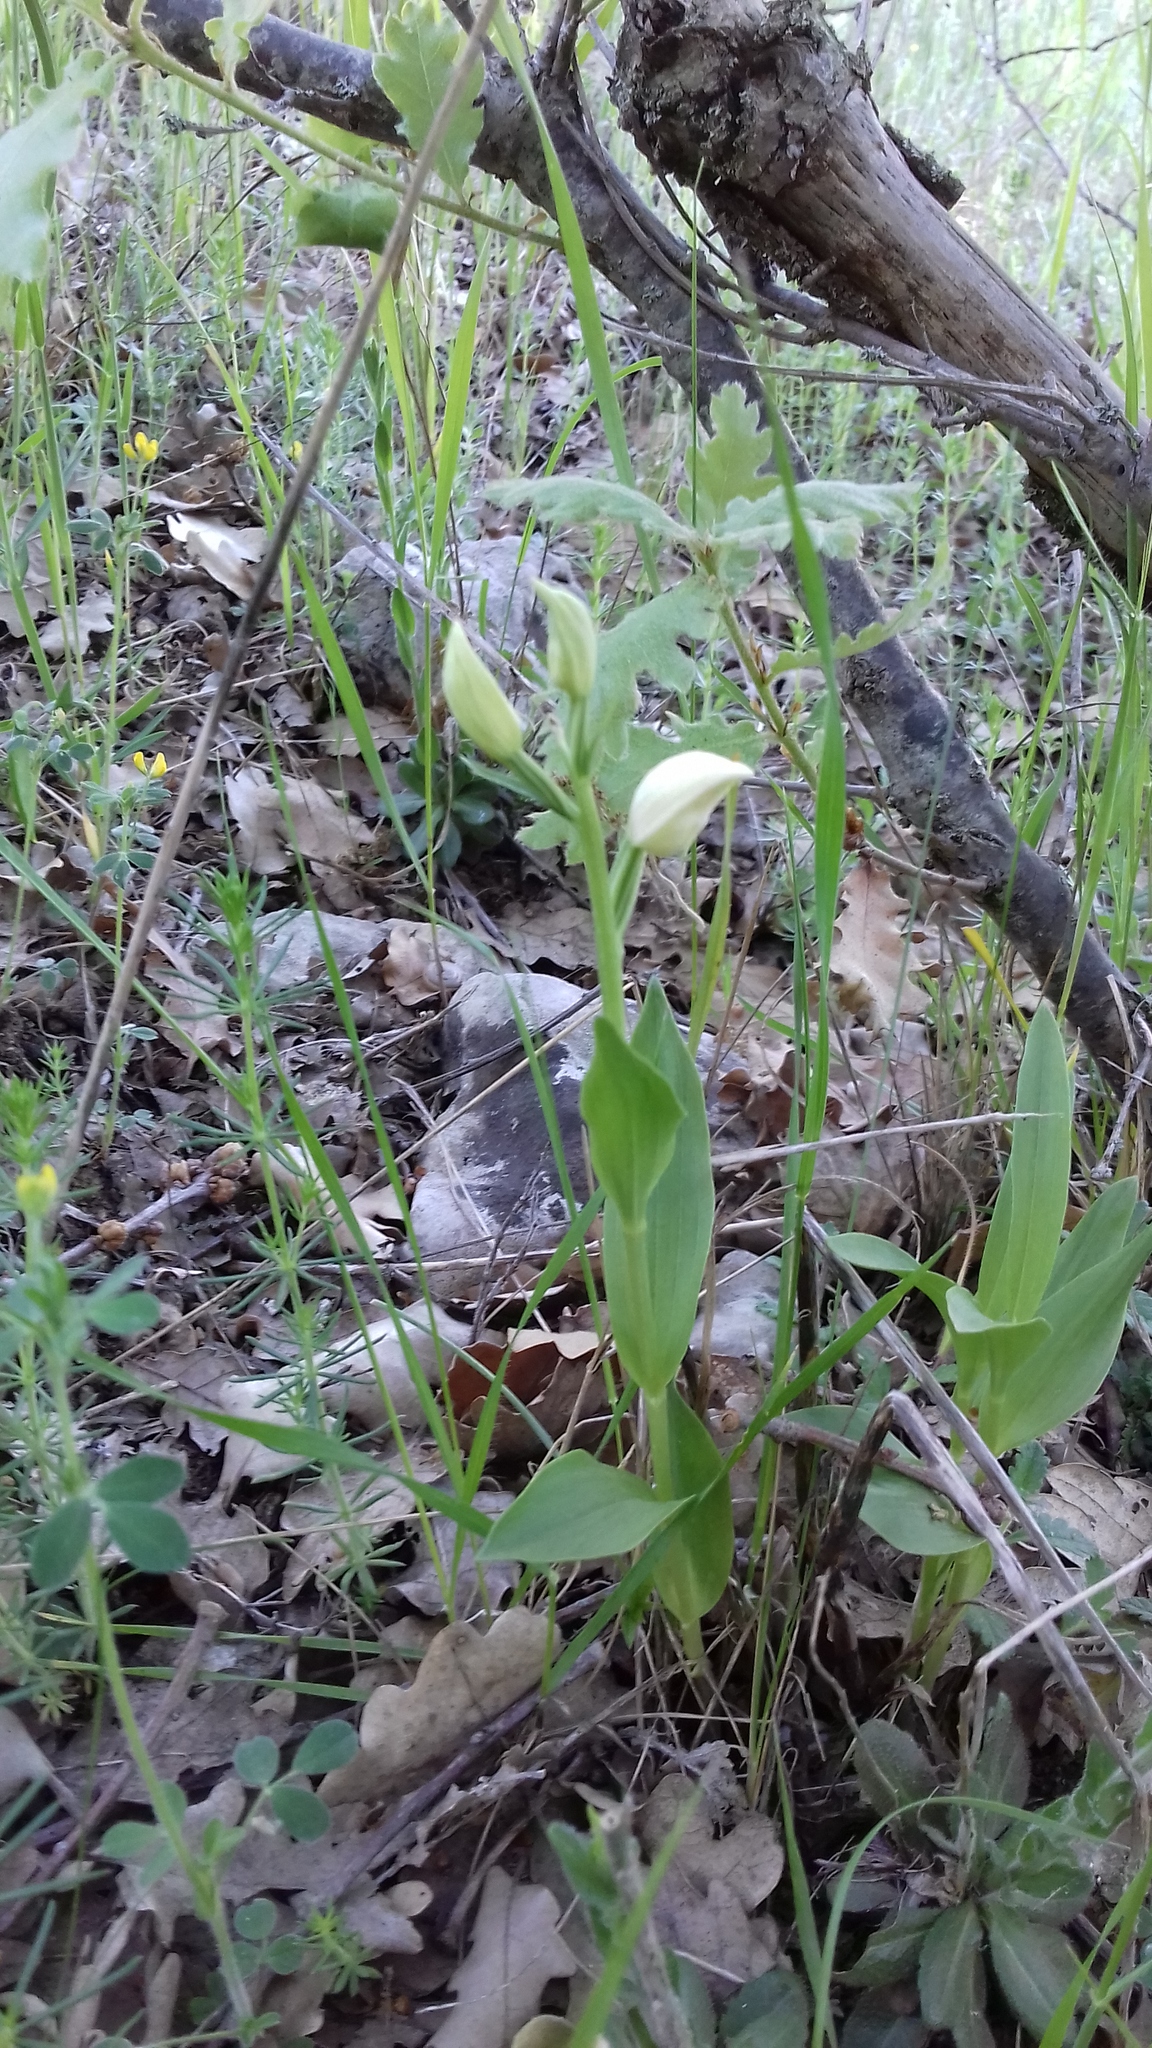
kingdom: Plantae
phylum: Tracheophyta
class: Liliopsida
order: Asparagales
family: Orchidaceae
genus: Cephalanthera
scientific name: Cephalanthera damasonium
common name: White helleborine
